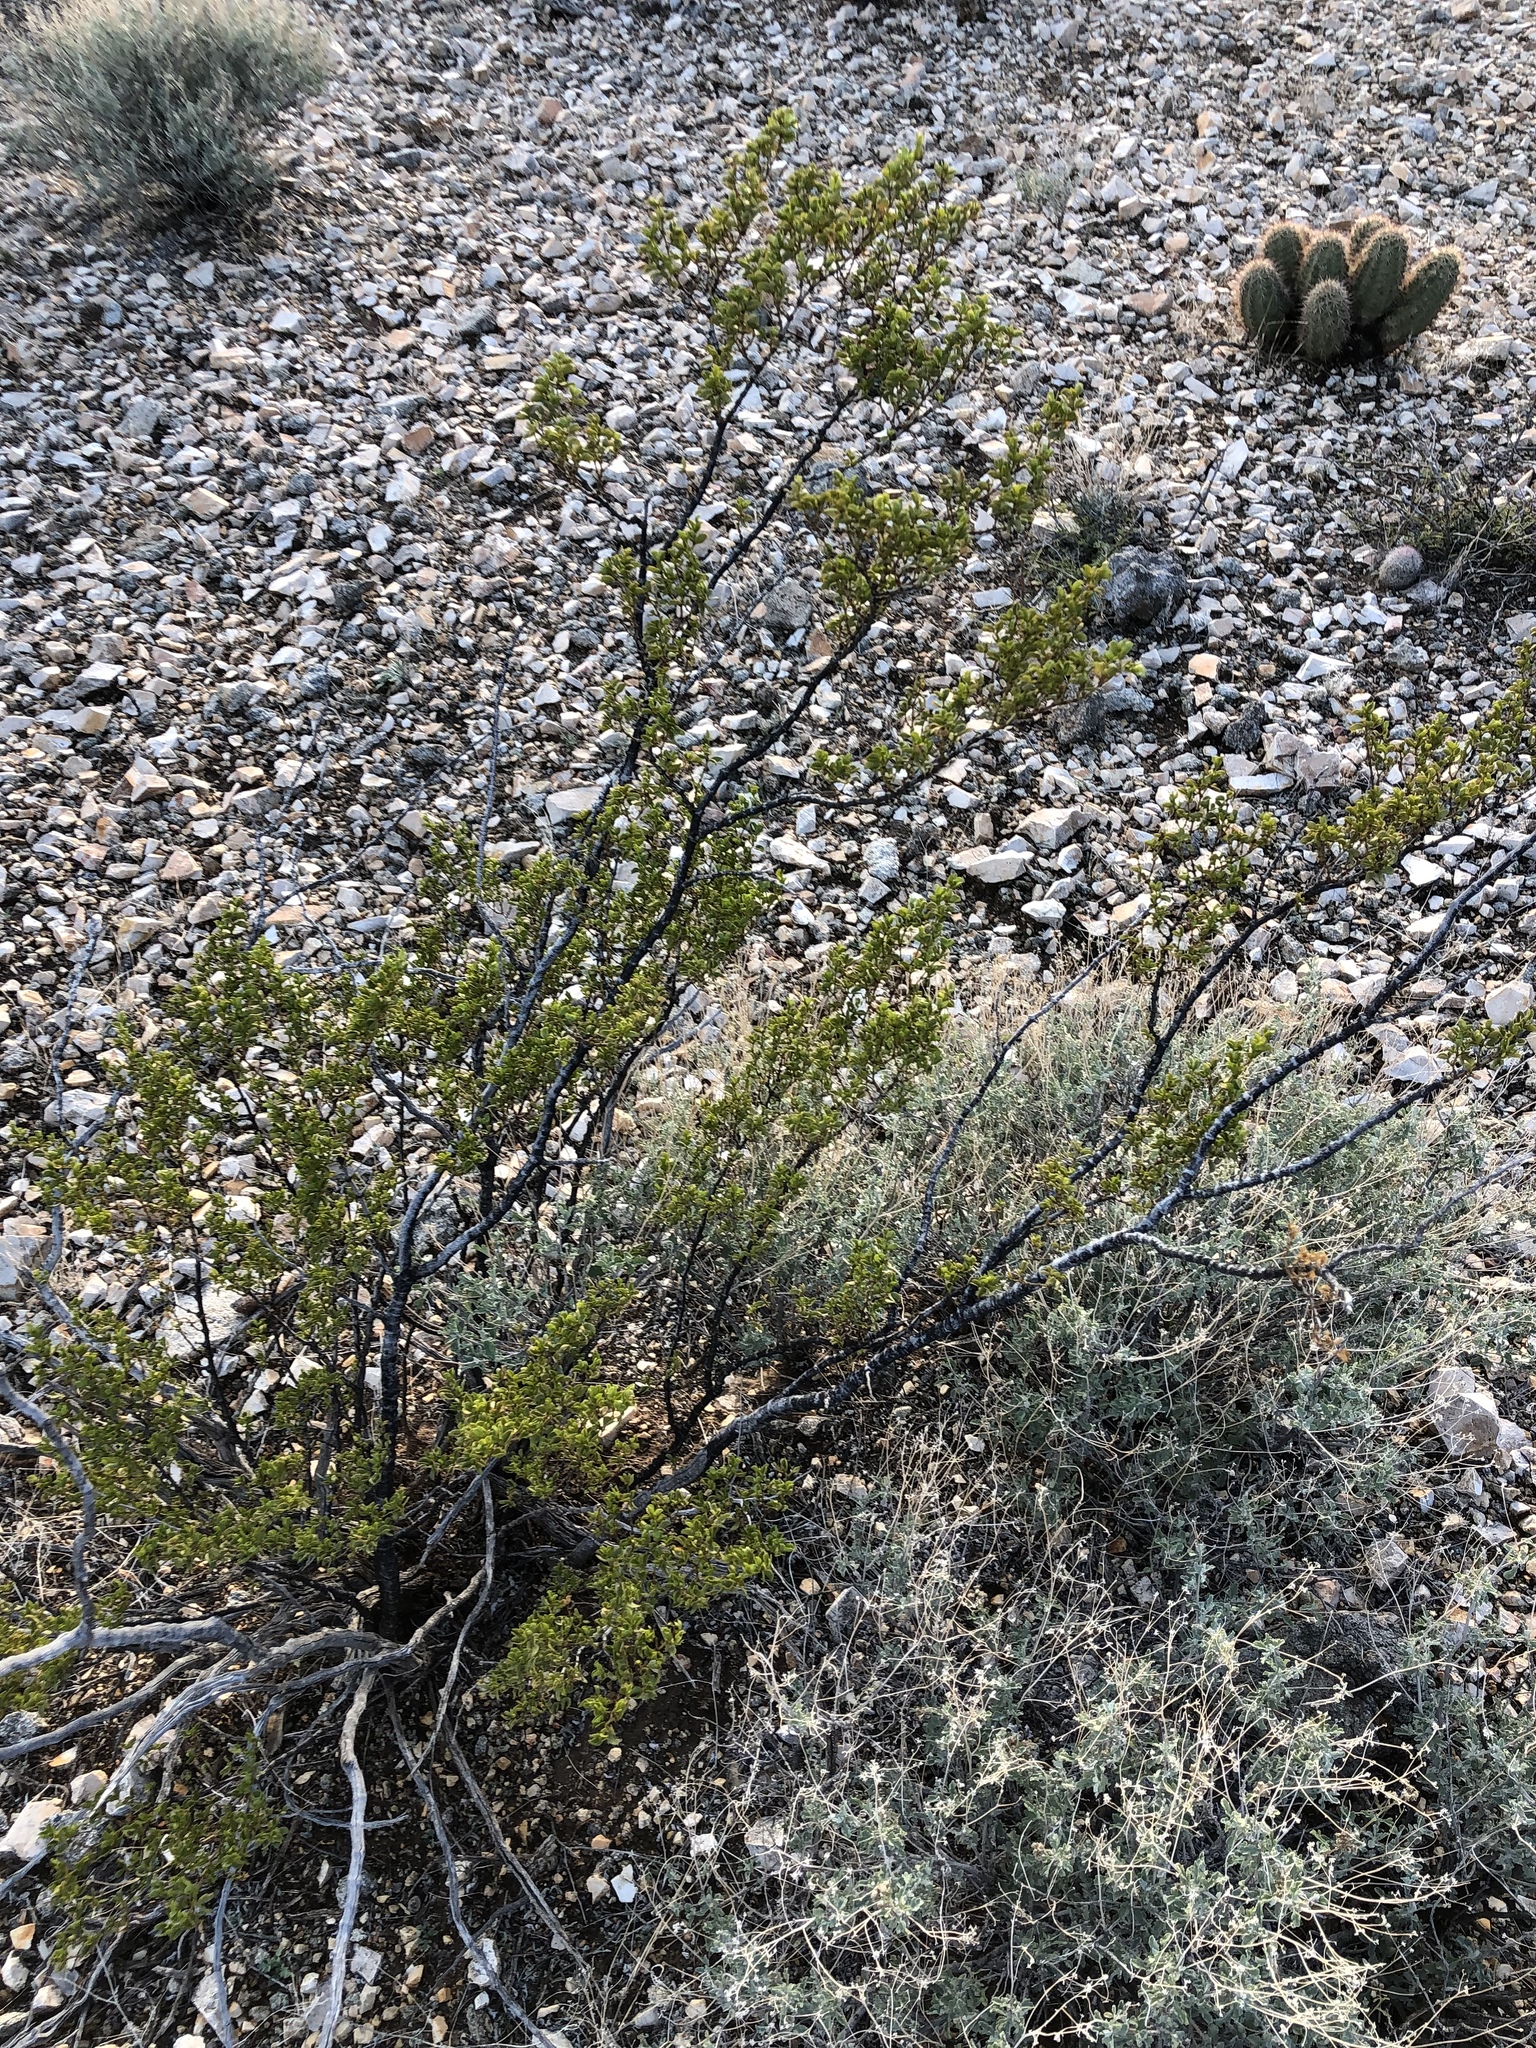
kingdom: Plantae
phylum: Tracheophyta
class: Magnoliopsida
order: Zygophyllales
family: Zygophyllaceae
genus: Larrea
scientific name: Larrea tridentata
